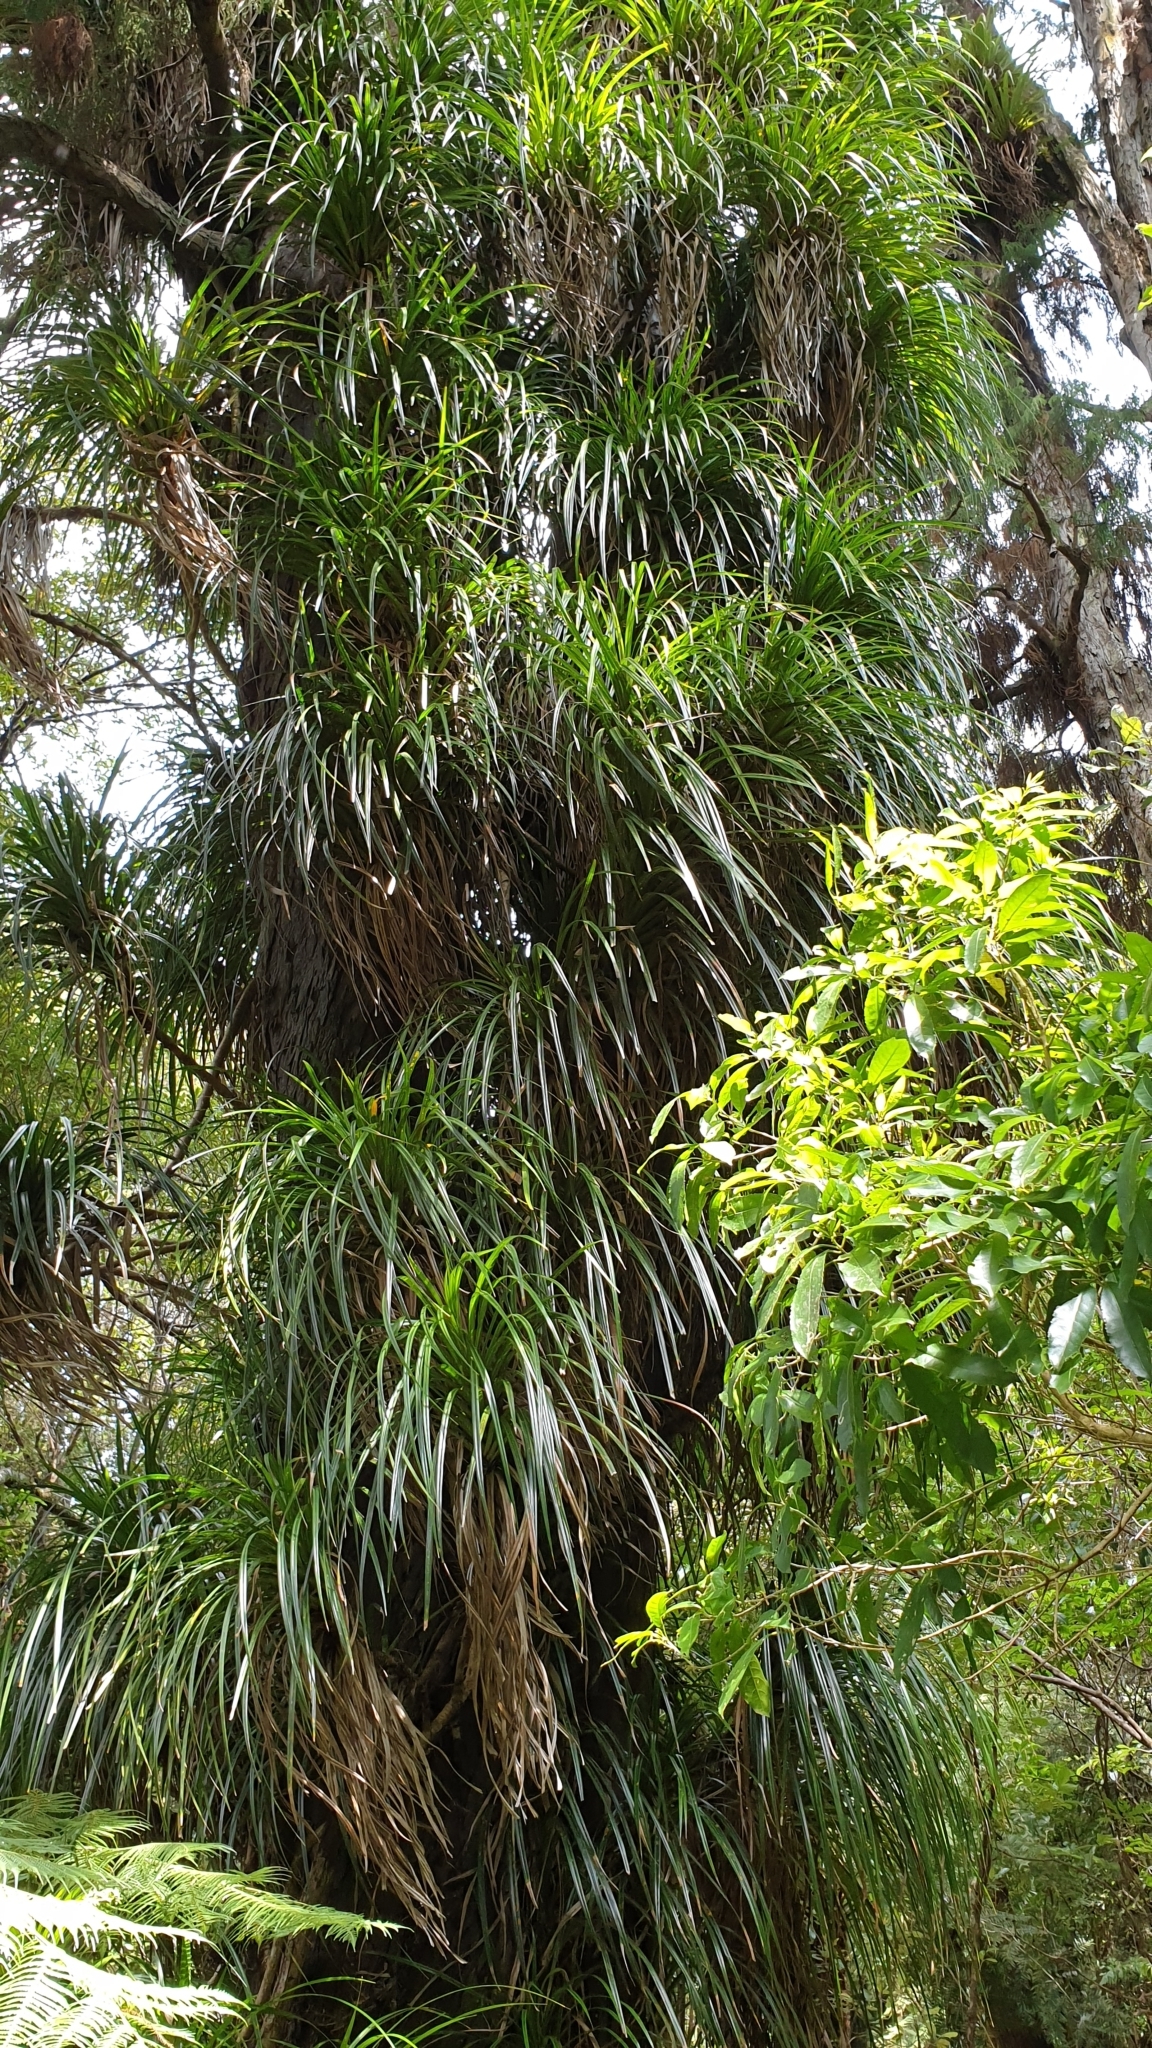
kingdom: Plantae
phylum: Tracheophyta
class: Liliopsida
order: Pandanales
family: Pandanaceae
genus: Freycinetia
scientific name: Freycinetia banksii
